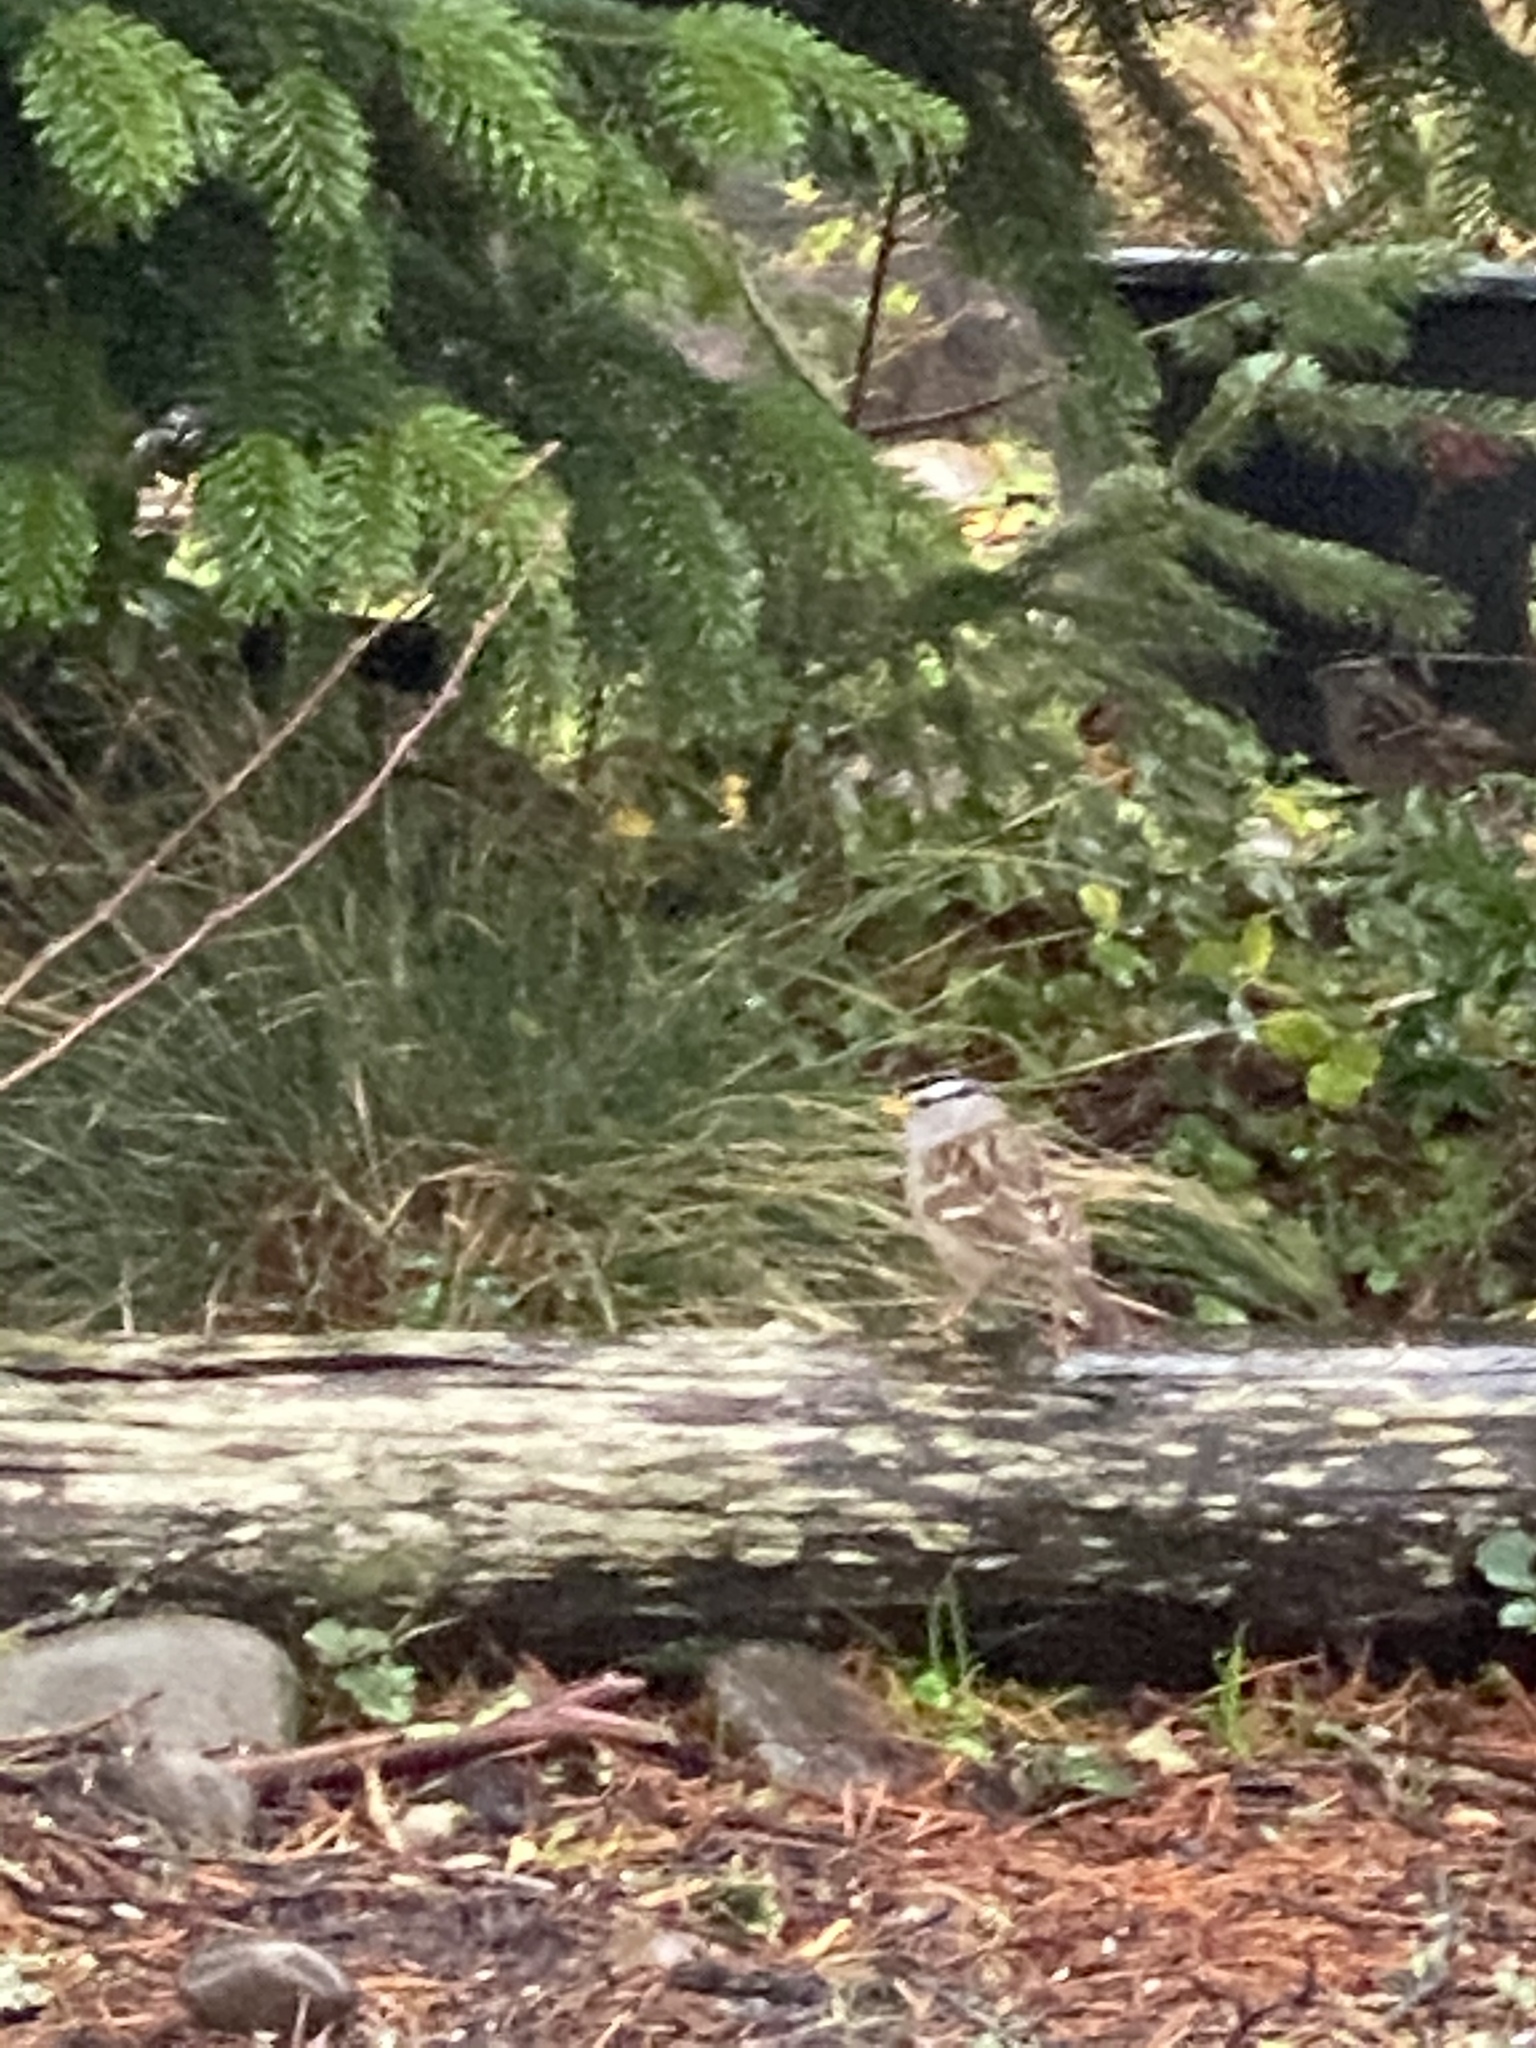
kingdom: Animalia
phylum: Chordata
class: Aves
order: Passeriformes
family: Passerellidae
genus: Zonotrichia
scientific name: Zonotrichia leucophrys
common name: White-crowned sparrow
